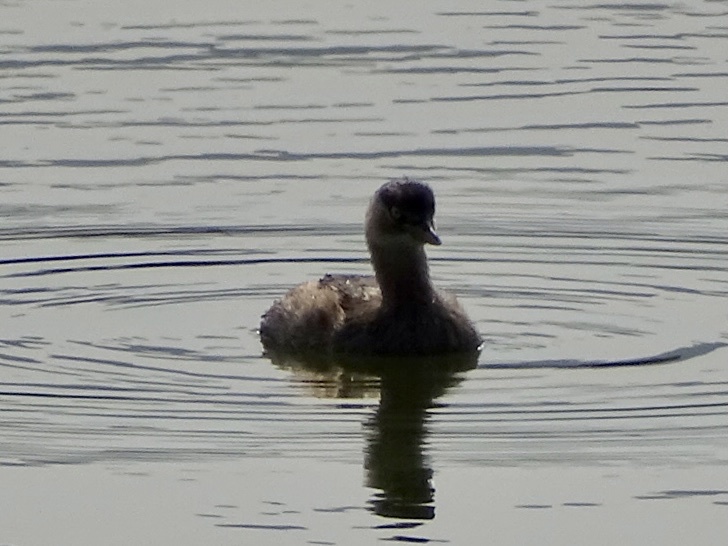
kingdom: Animalia
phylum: Chordata
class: Aves
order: Podicipediformes
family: Podicipedidae
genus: Tachybaptus
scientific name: Tachybaptus ruficollis
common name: Little grebe
